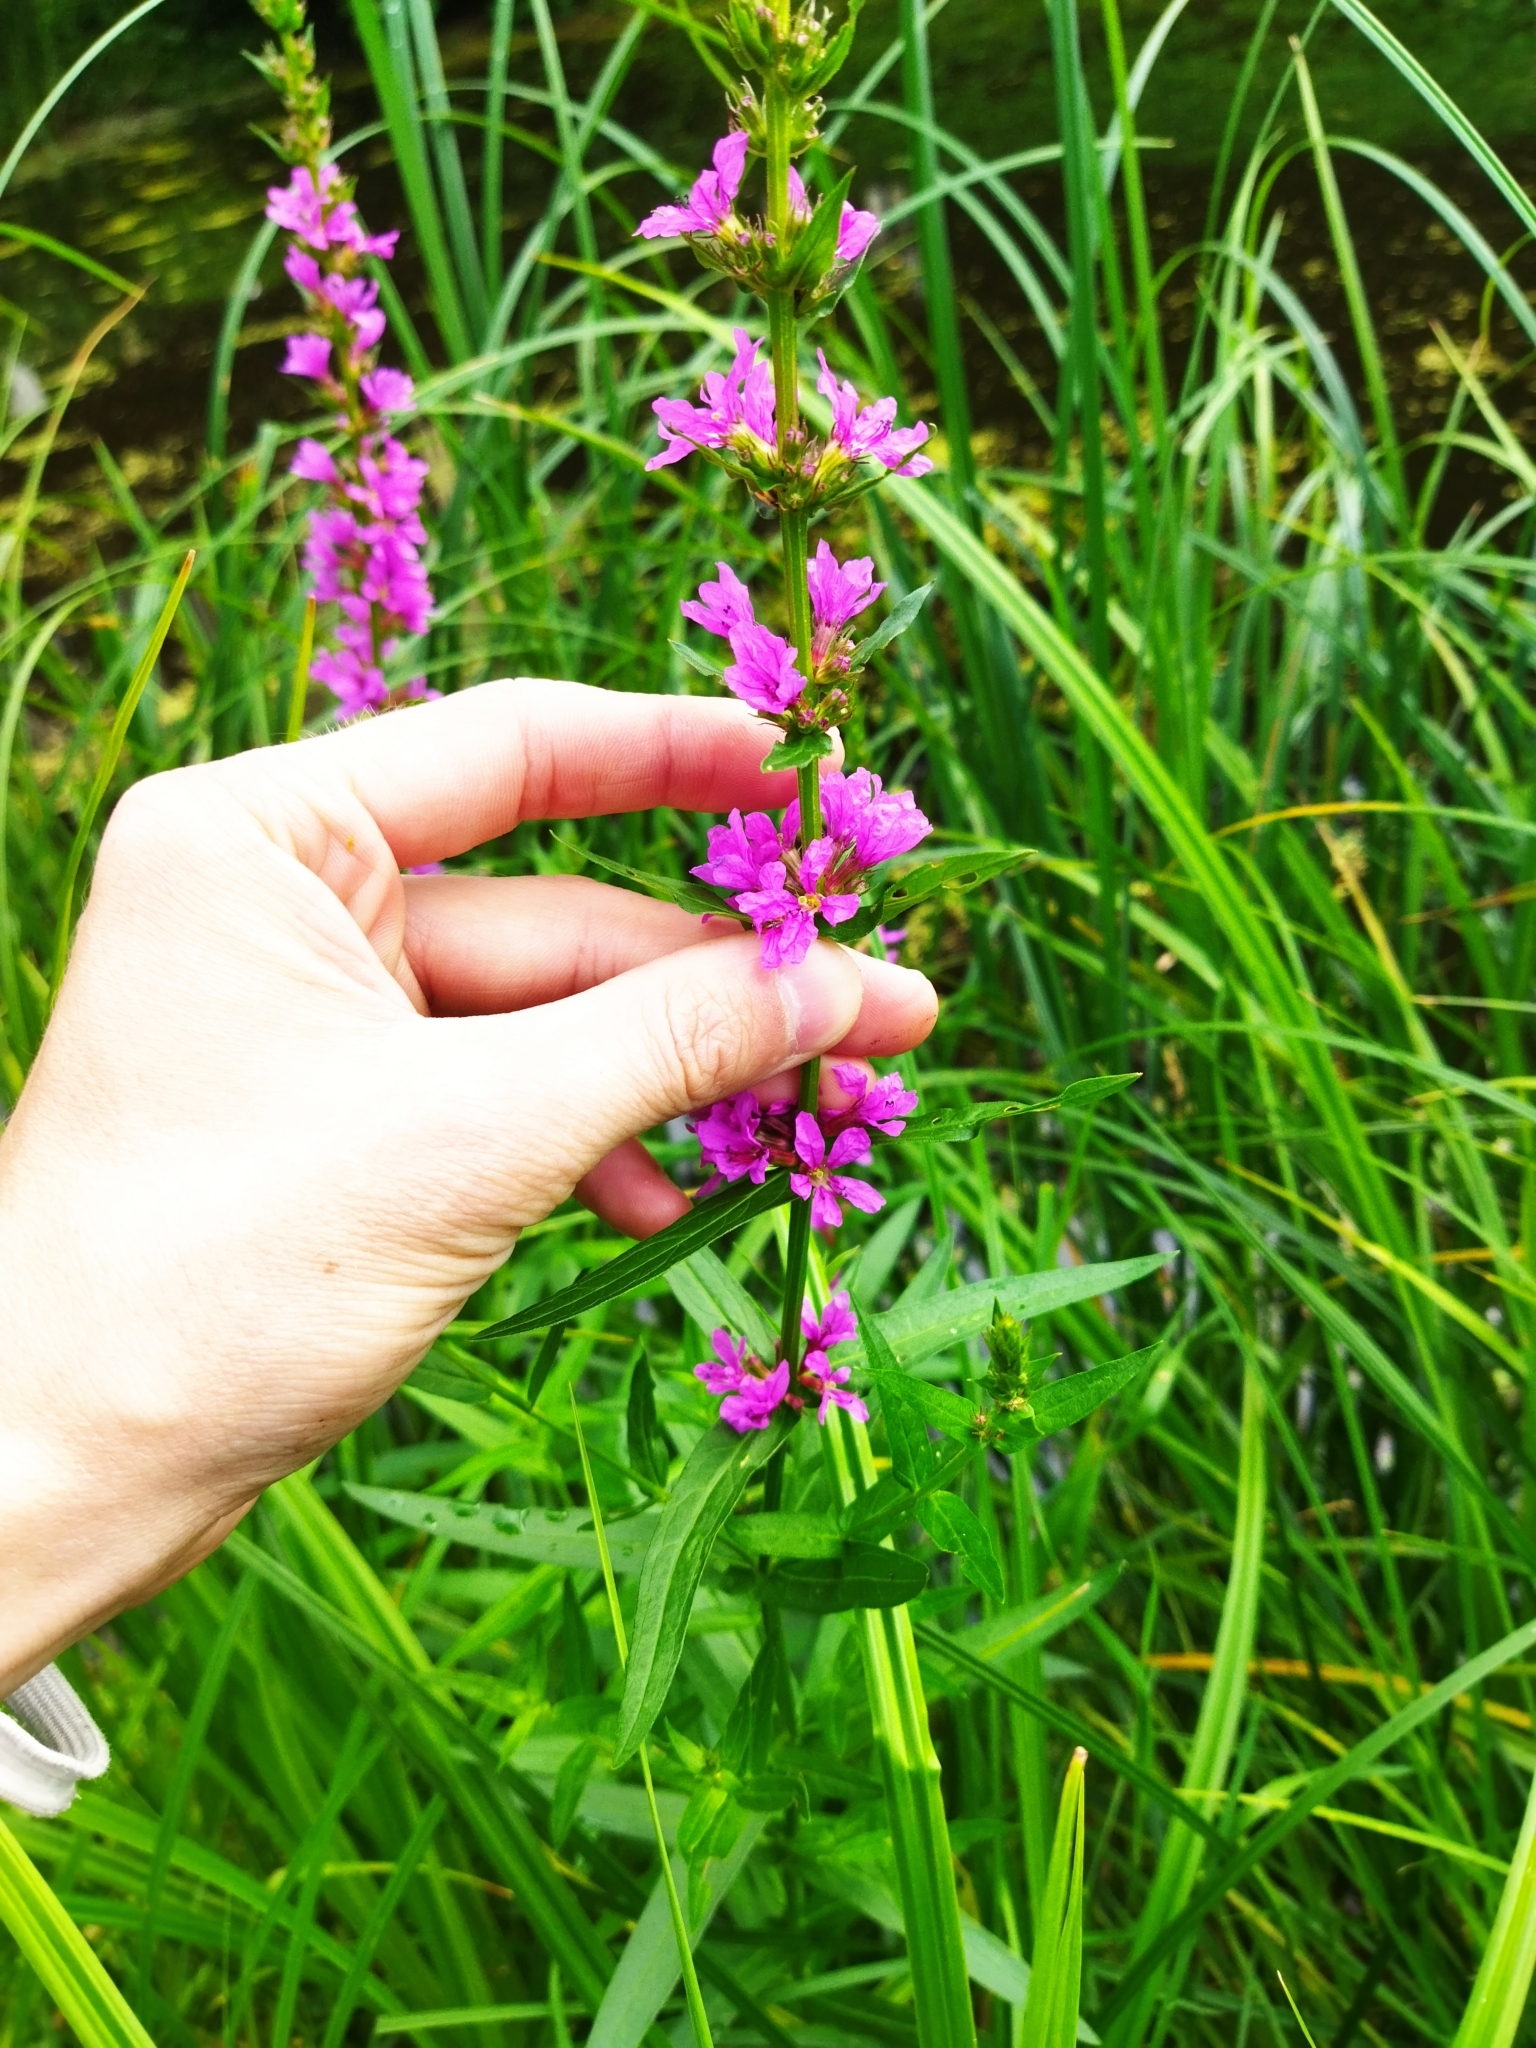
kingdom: Plantae
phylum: Tracheophyta
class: Magnoliopsida
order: Myrtales
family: Lythraceae
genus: Lythrum
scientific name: Lythrum salicaria
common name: Purple loosestrife
